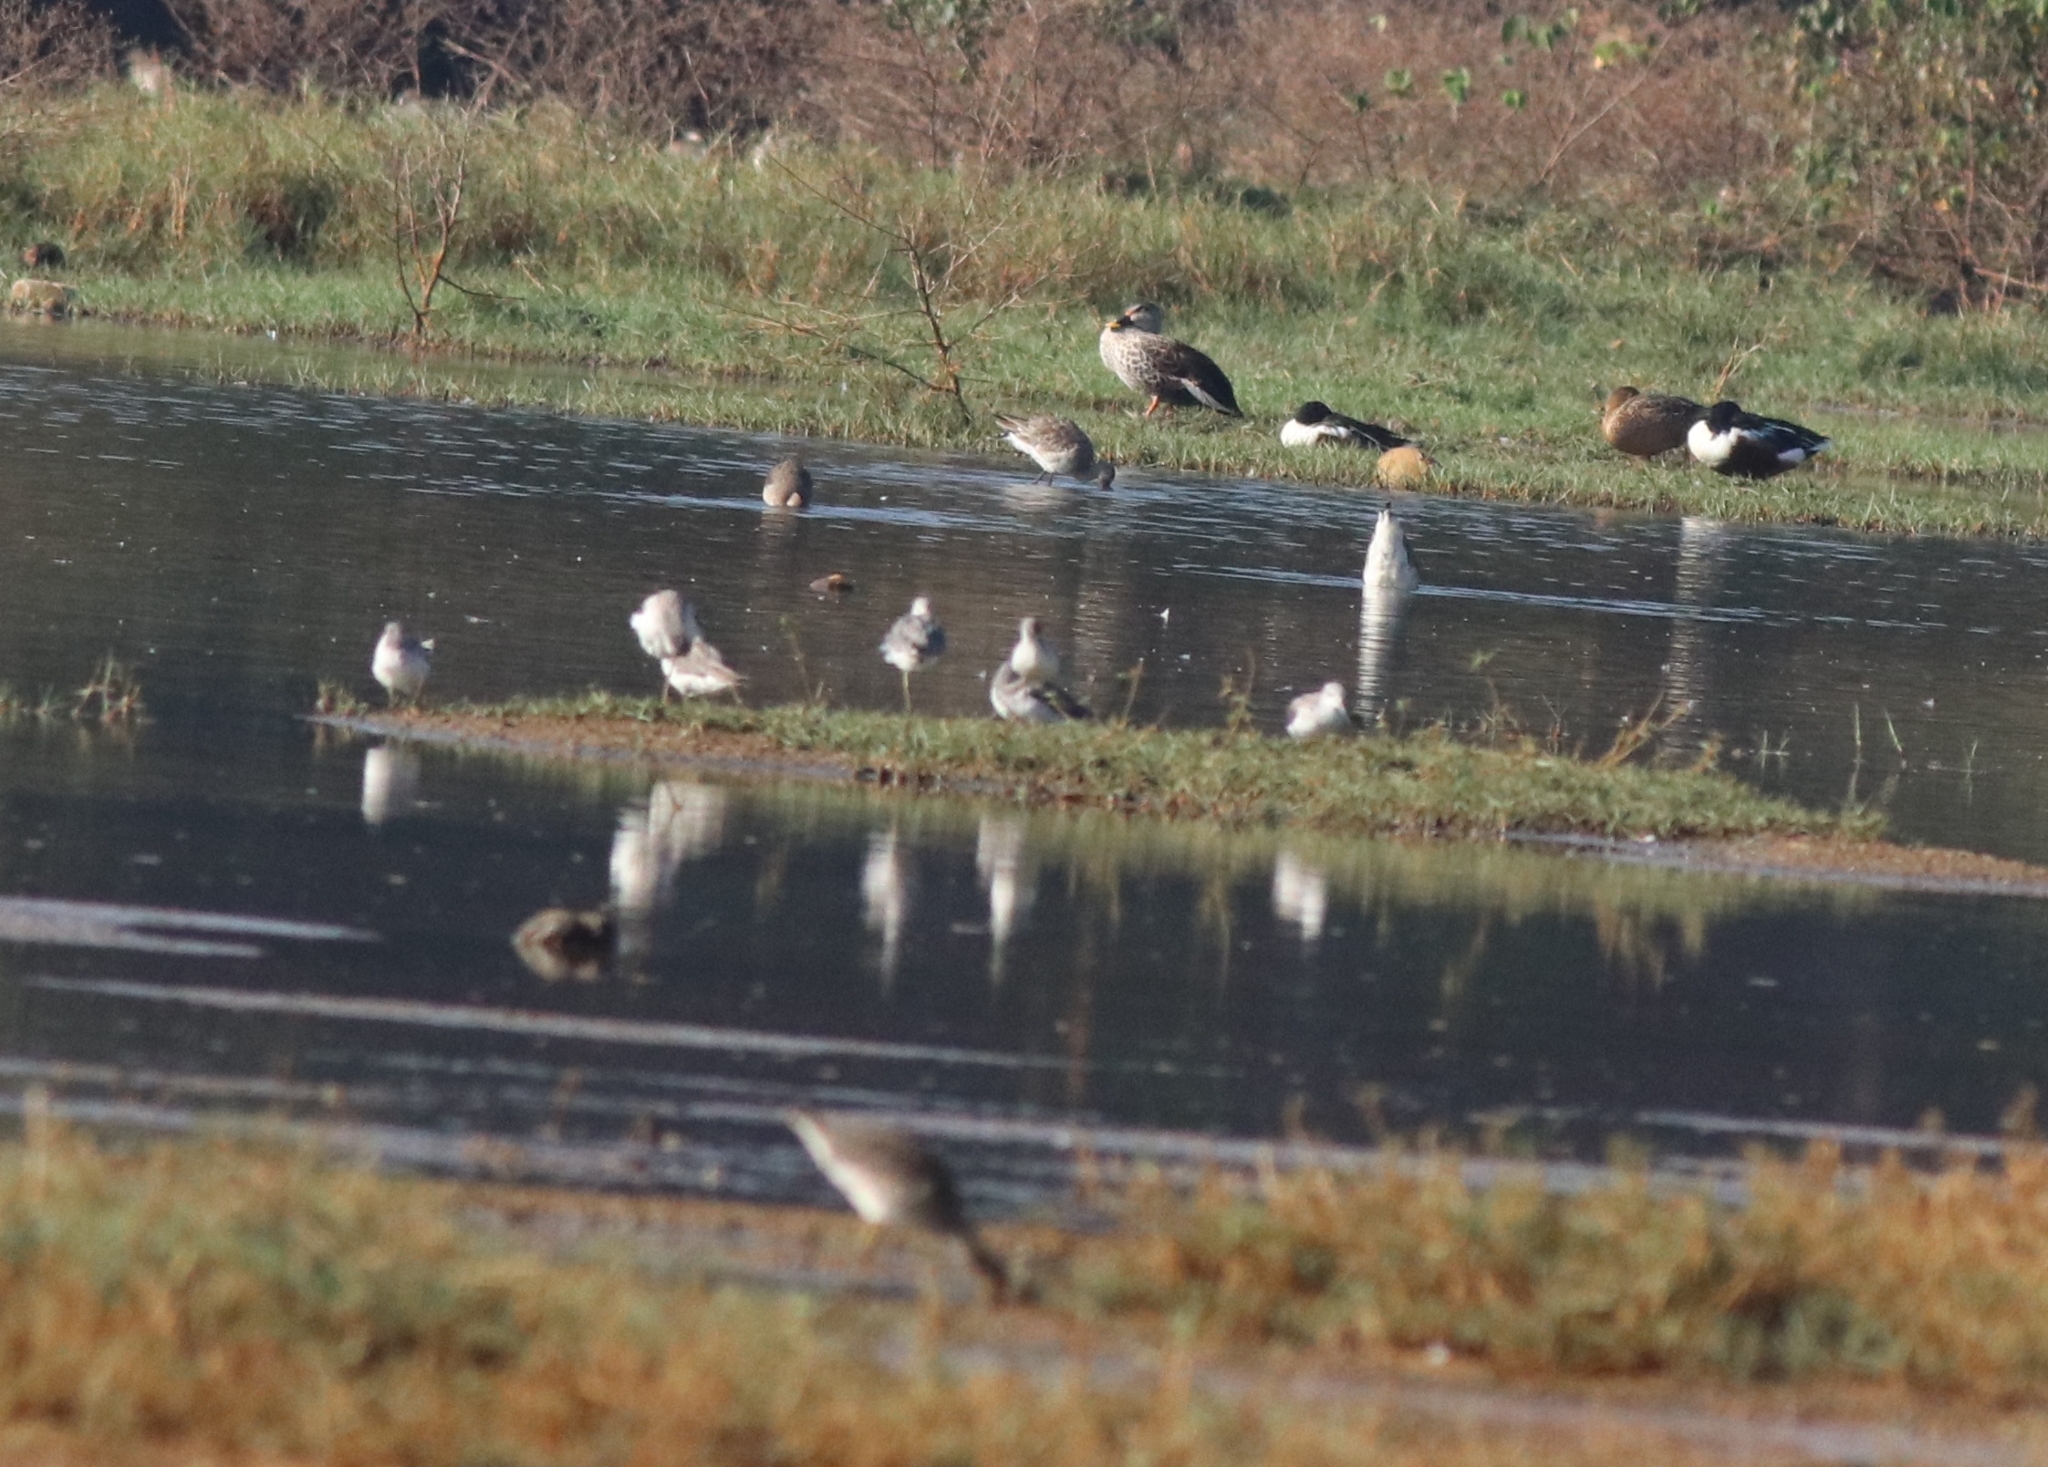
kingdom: Animalia
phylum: Chordata
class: Aves
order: Anseriformes
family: Anatidae
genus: Anas
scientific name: Anas poecilorhyncha
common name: Indian spot-billed duck
